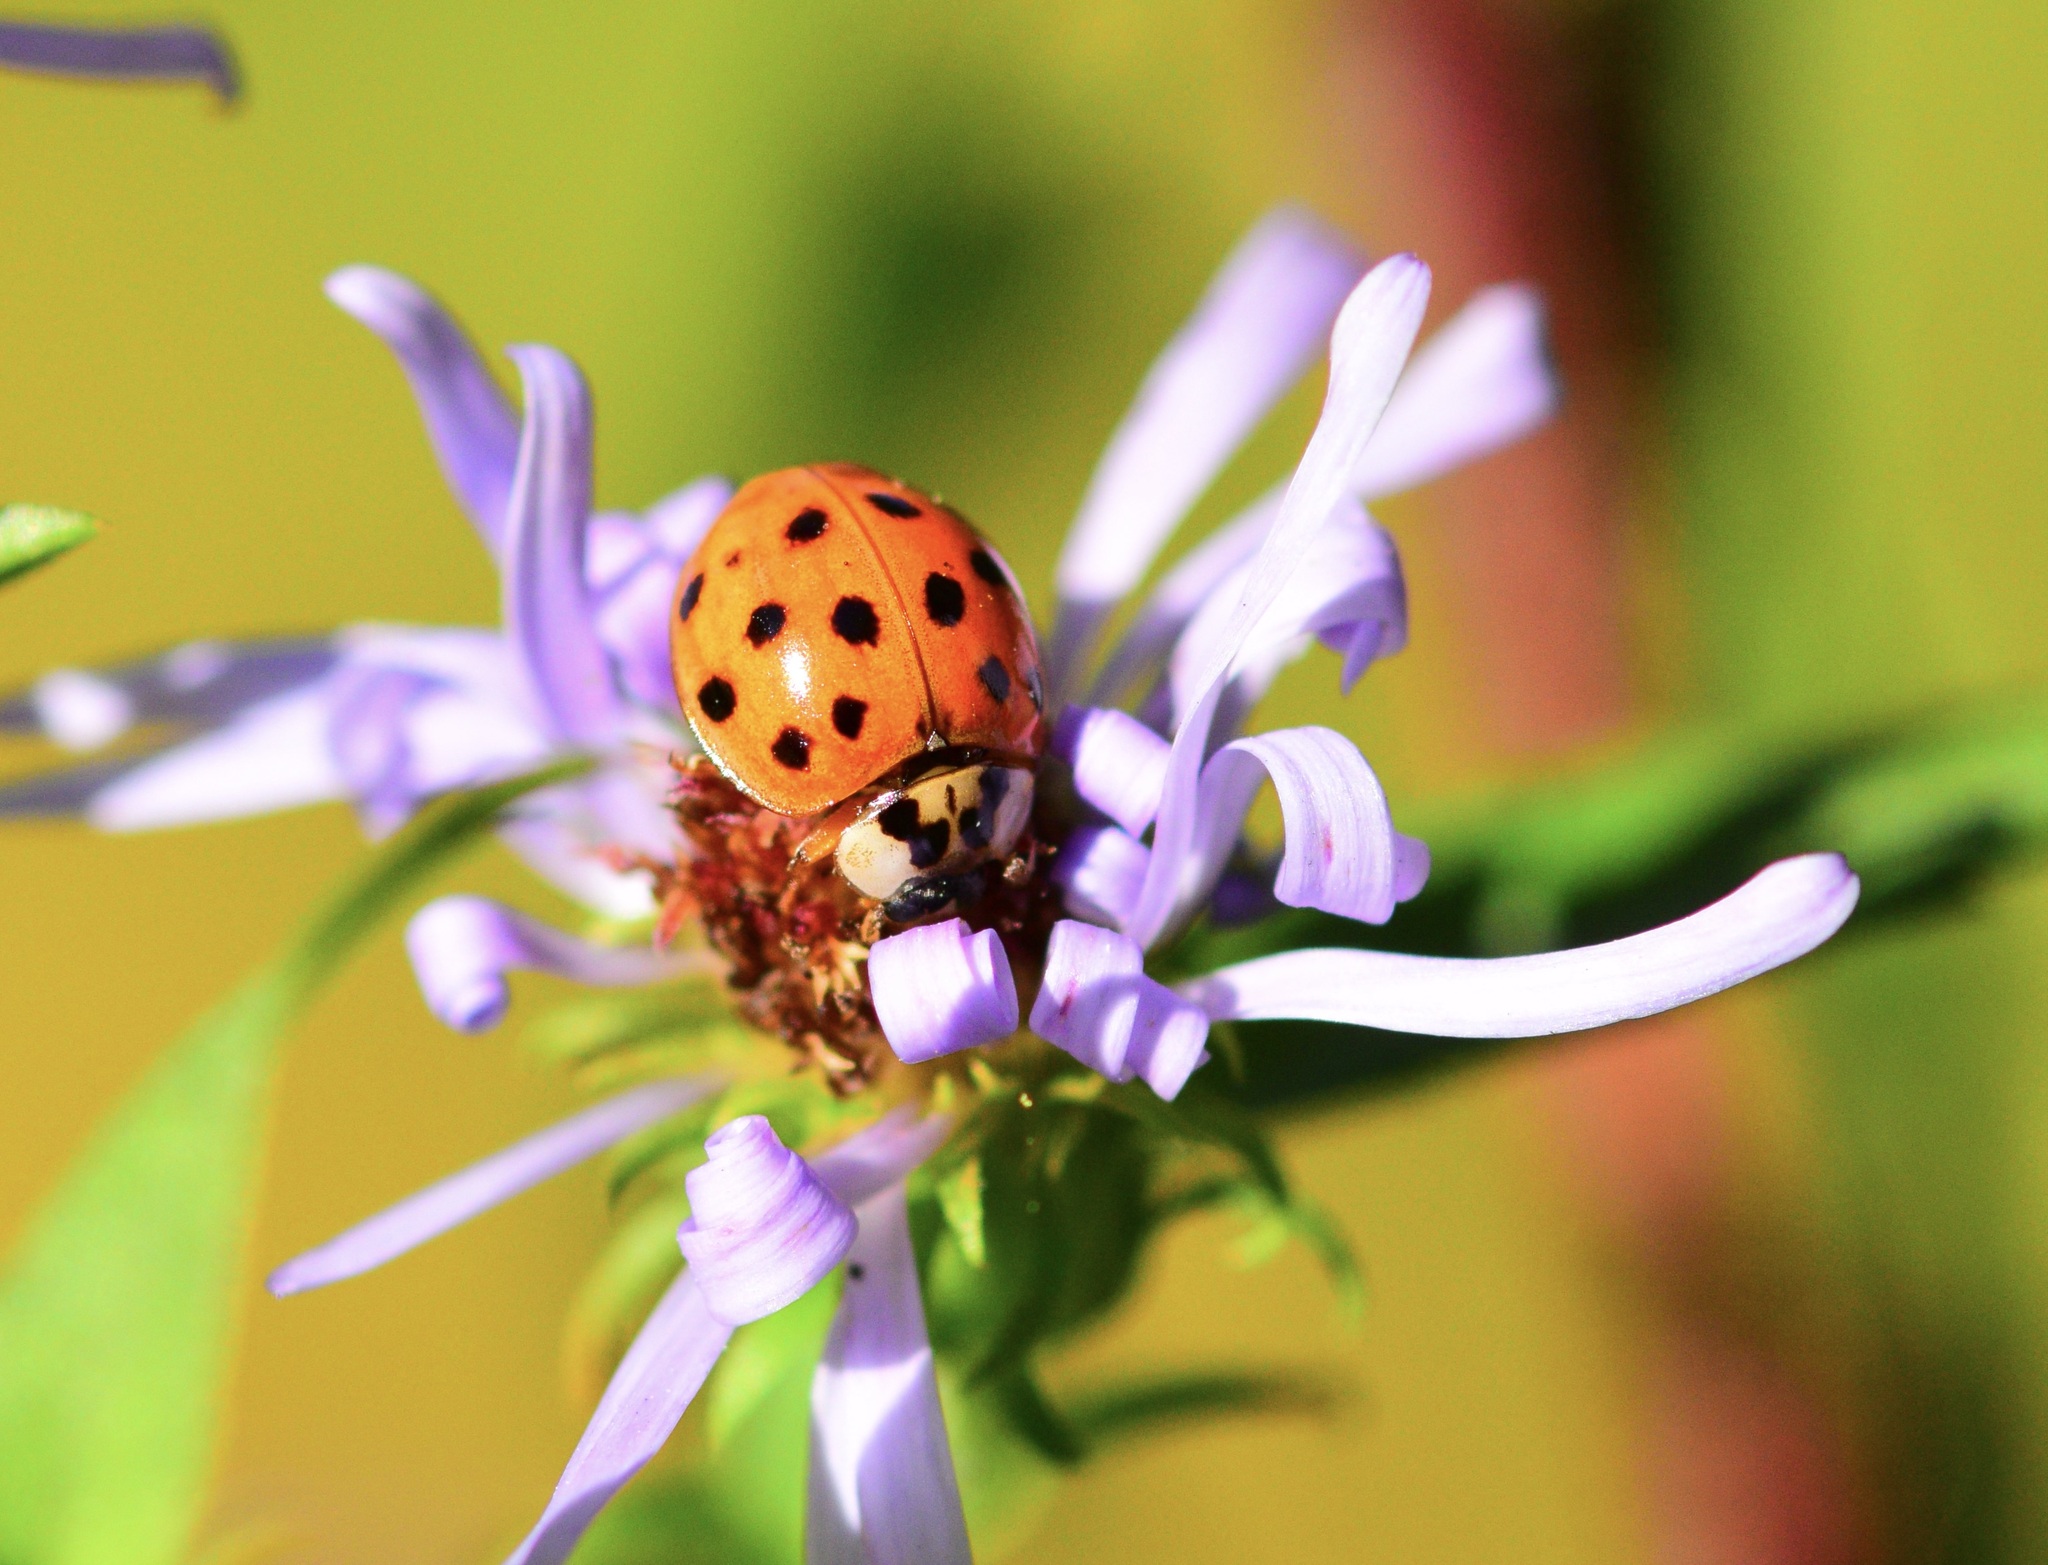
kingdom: Animalia
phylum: Arthropoda
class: Insecta
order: Coleoptera
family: Coccinellidae
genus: Harmonia
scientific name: Harmonia axyridis
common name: Harlequin ladybird
